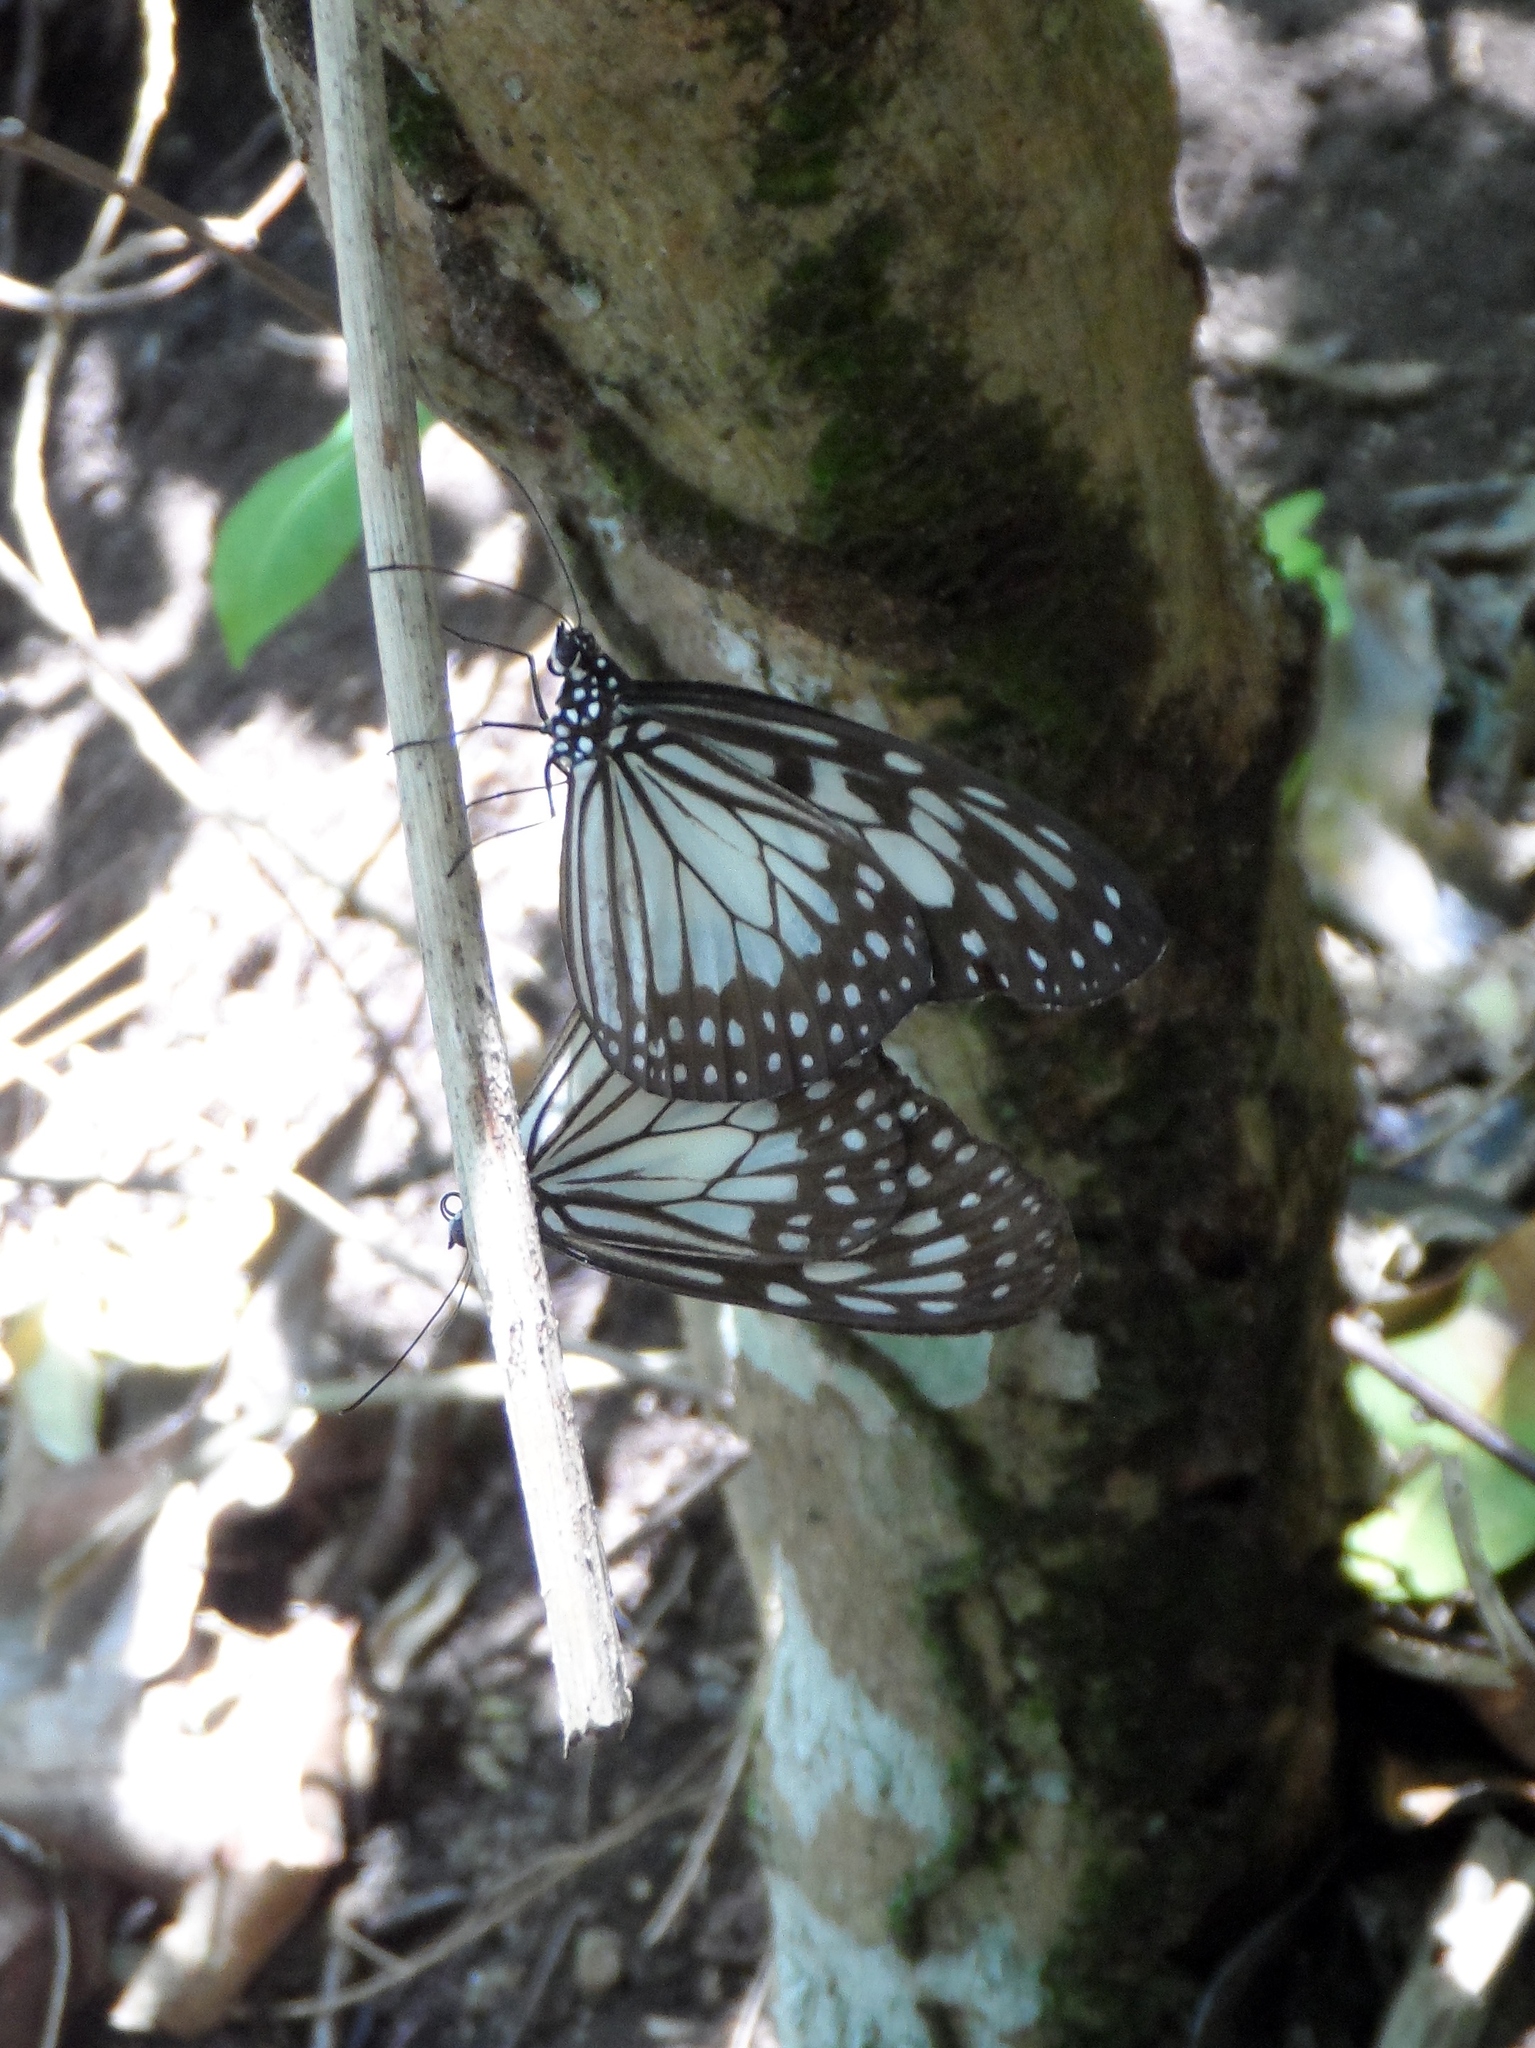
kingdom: Animalia
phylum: Arthropoda
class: Insecta
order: Lepidoptera
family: Nymphalidae
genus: Ideopsis
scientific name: Ideopsis juventa
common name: Grey glassy tiger
